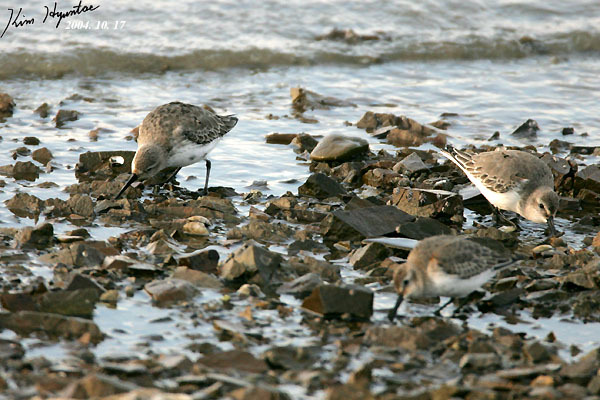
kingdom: Animalia
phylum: Chordata
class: Aves
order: Charadriiformes
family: Scolopacidae
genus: Calidris
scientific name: Calidris alpina
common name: Dunlin
